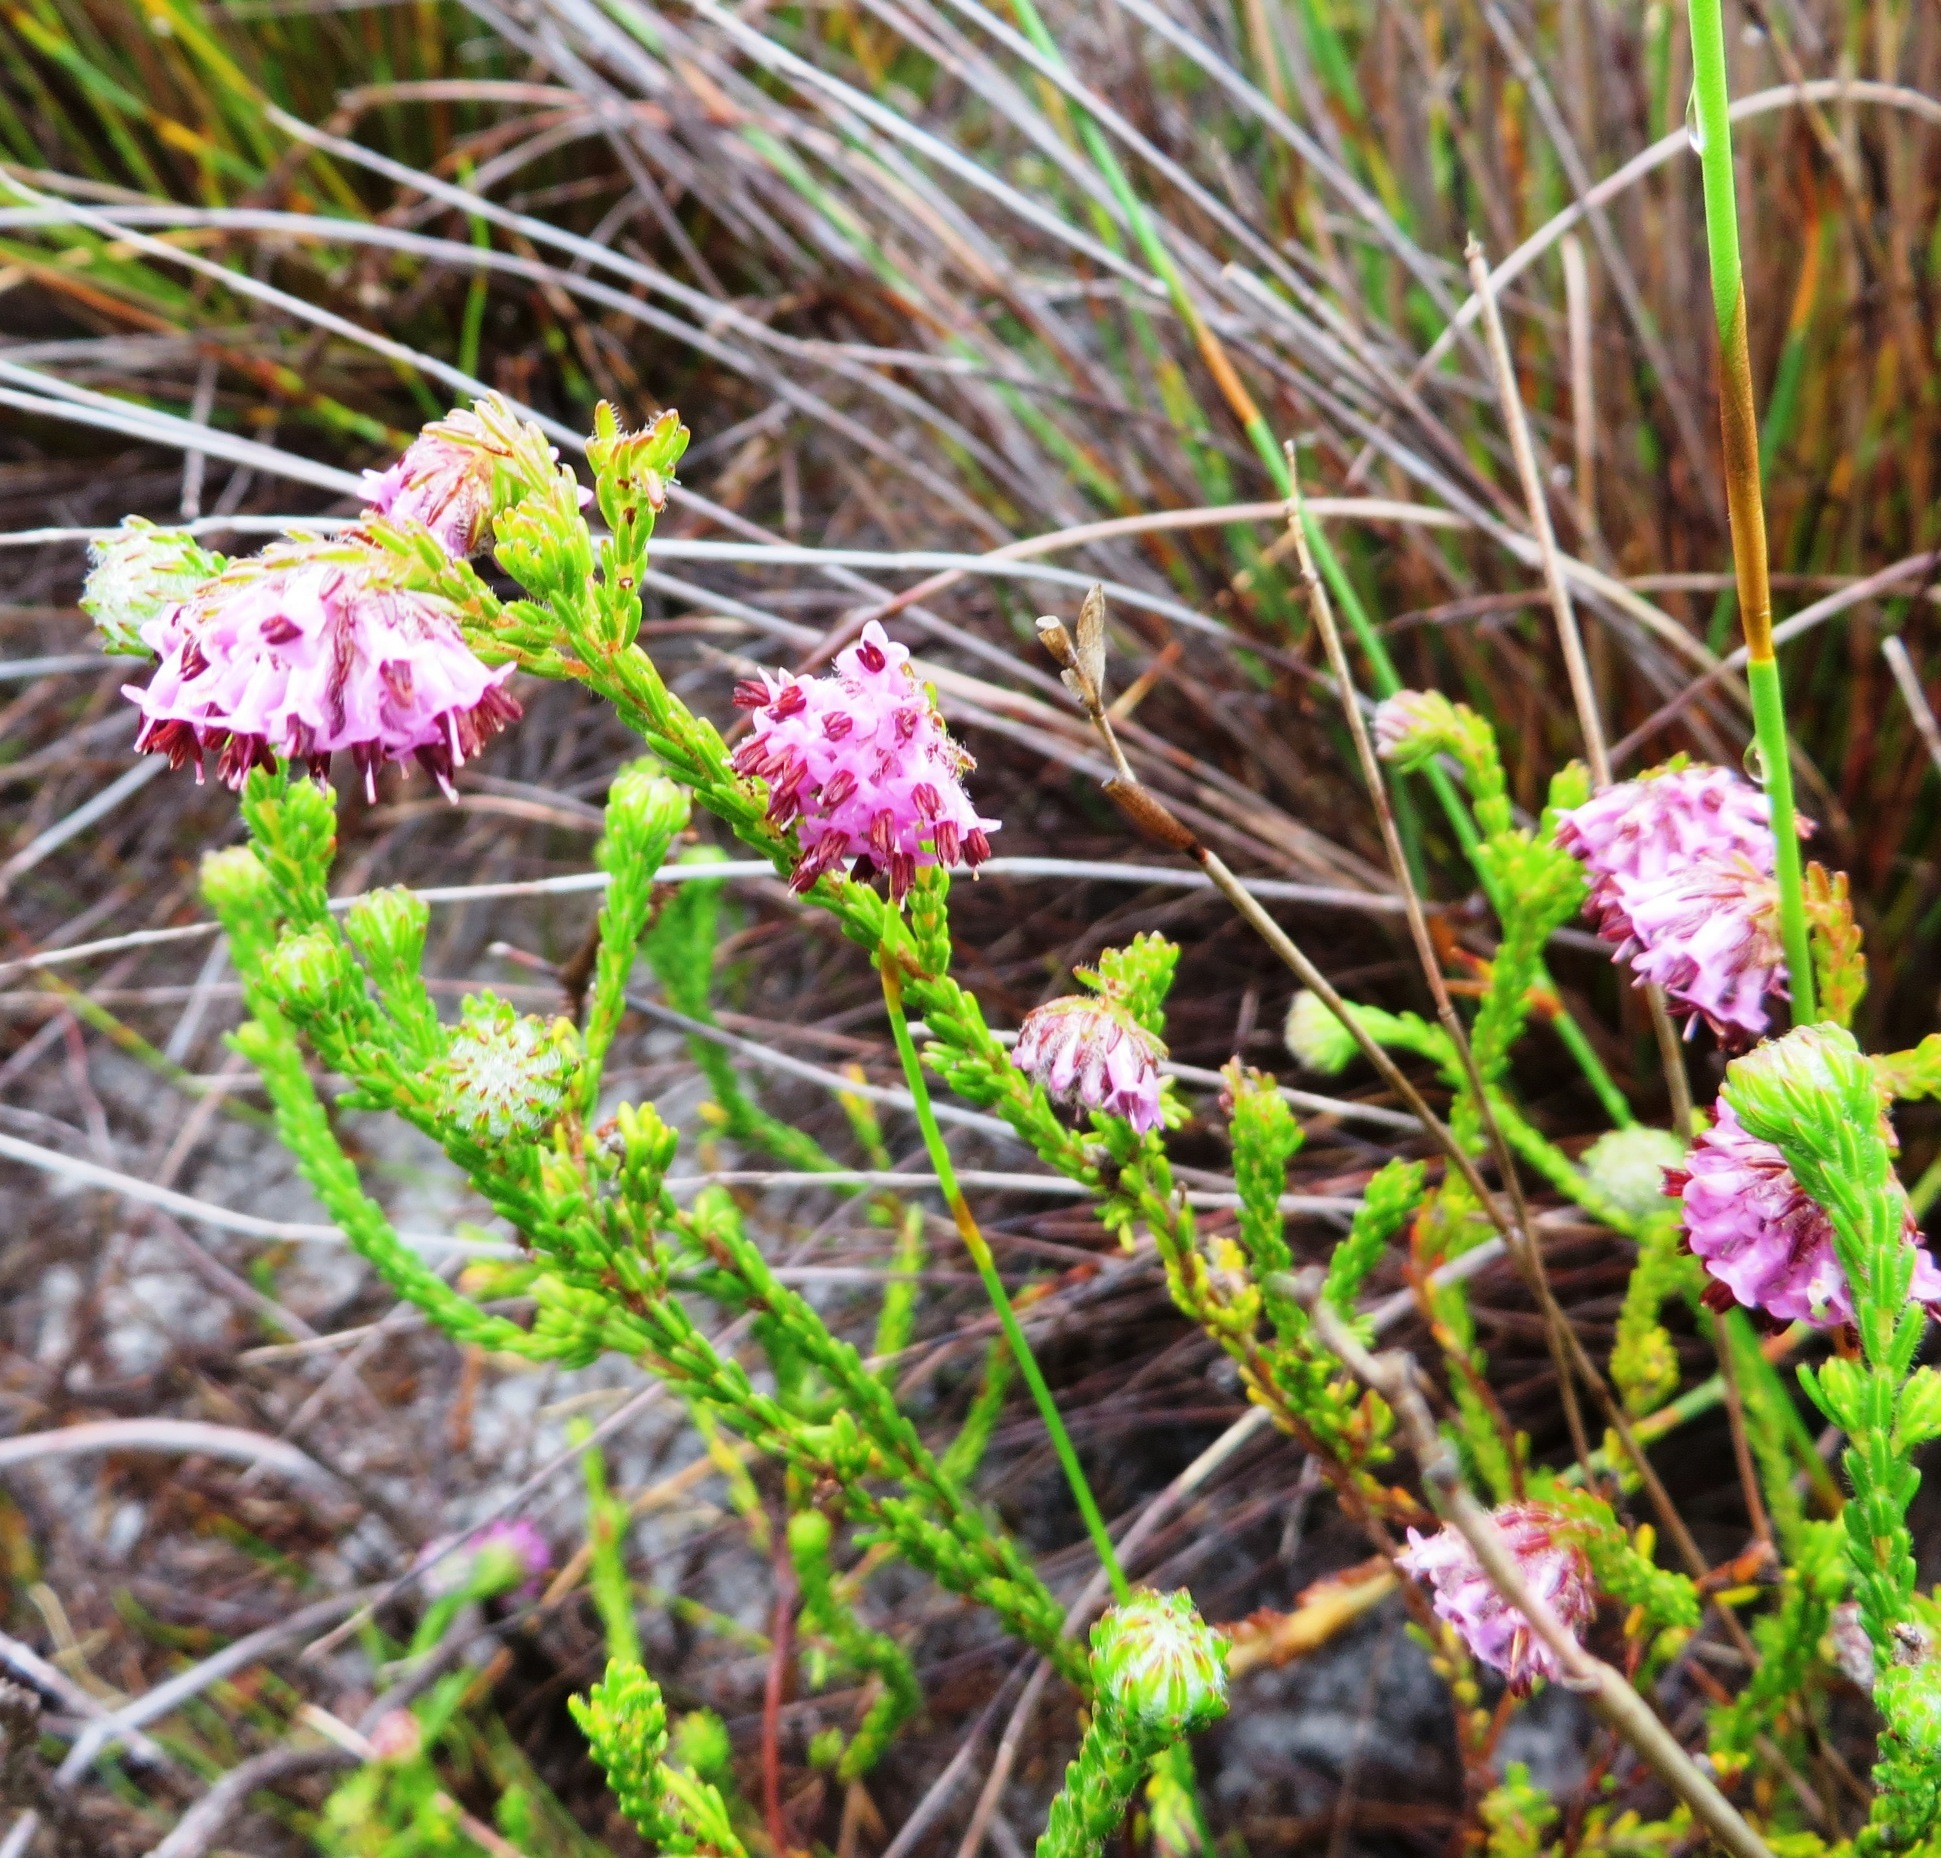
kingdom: Plantae
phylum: Tracheophyta
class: Magnoliopsida
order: Ericales
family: Ericaceae
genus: Erica
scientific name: Erica barbigeroides
